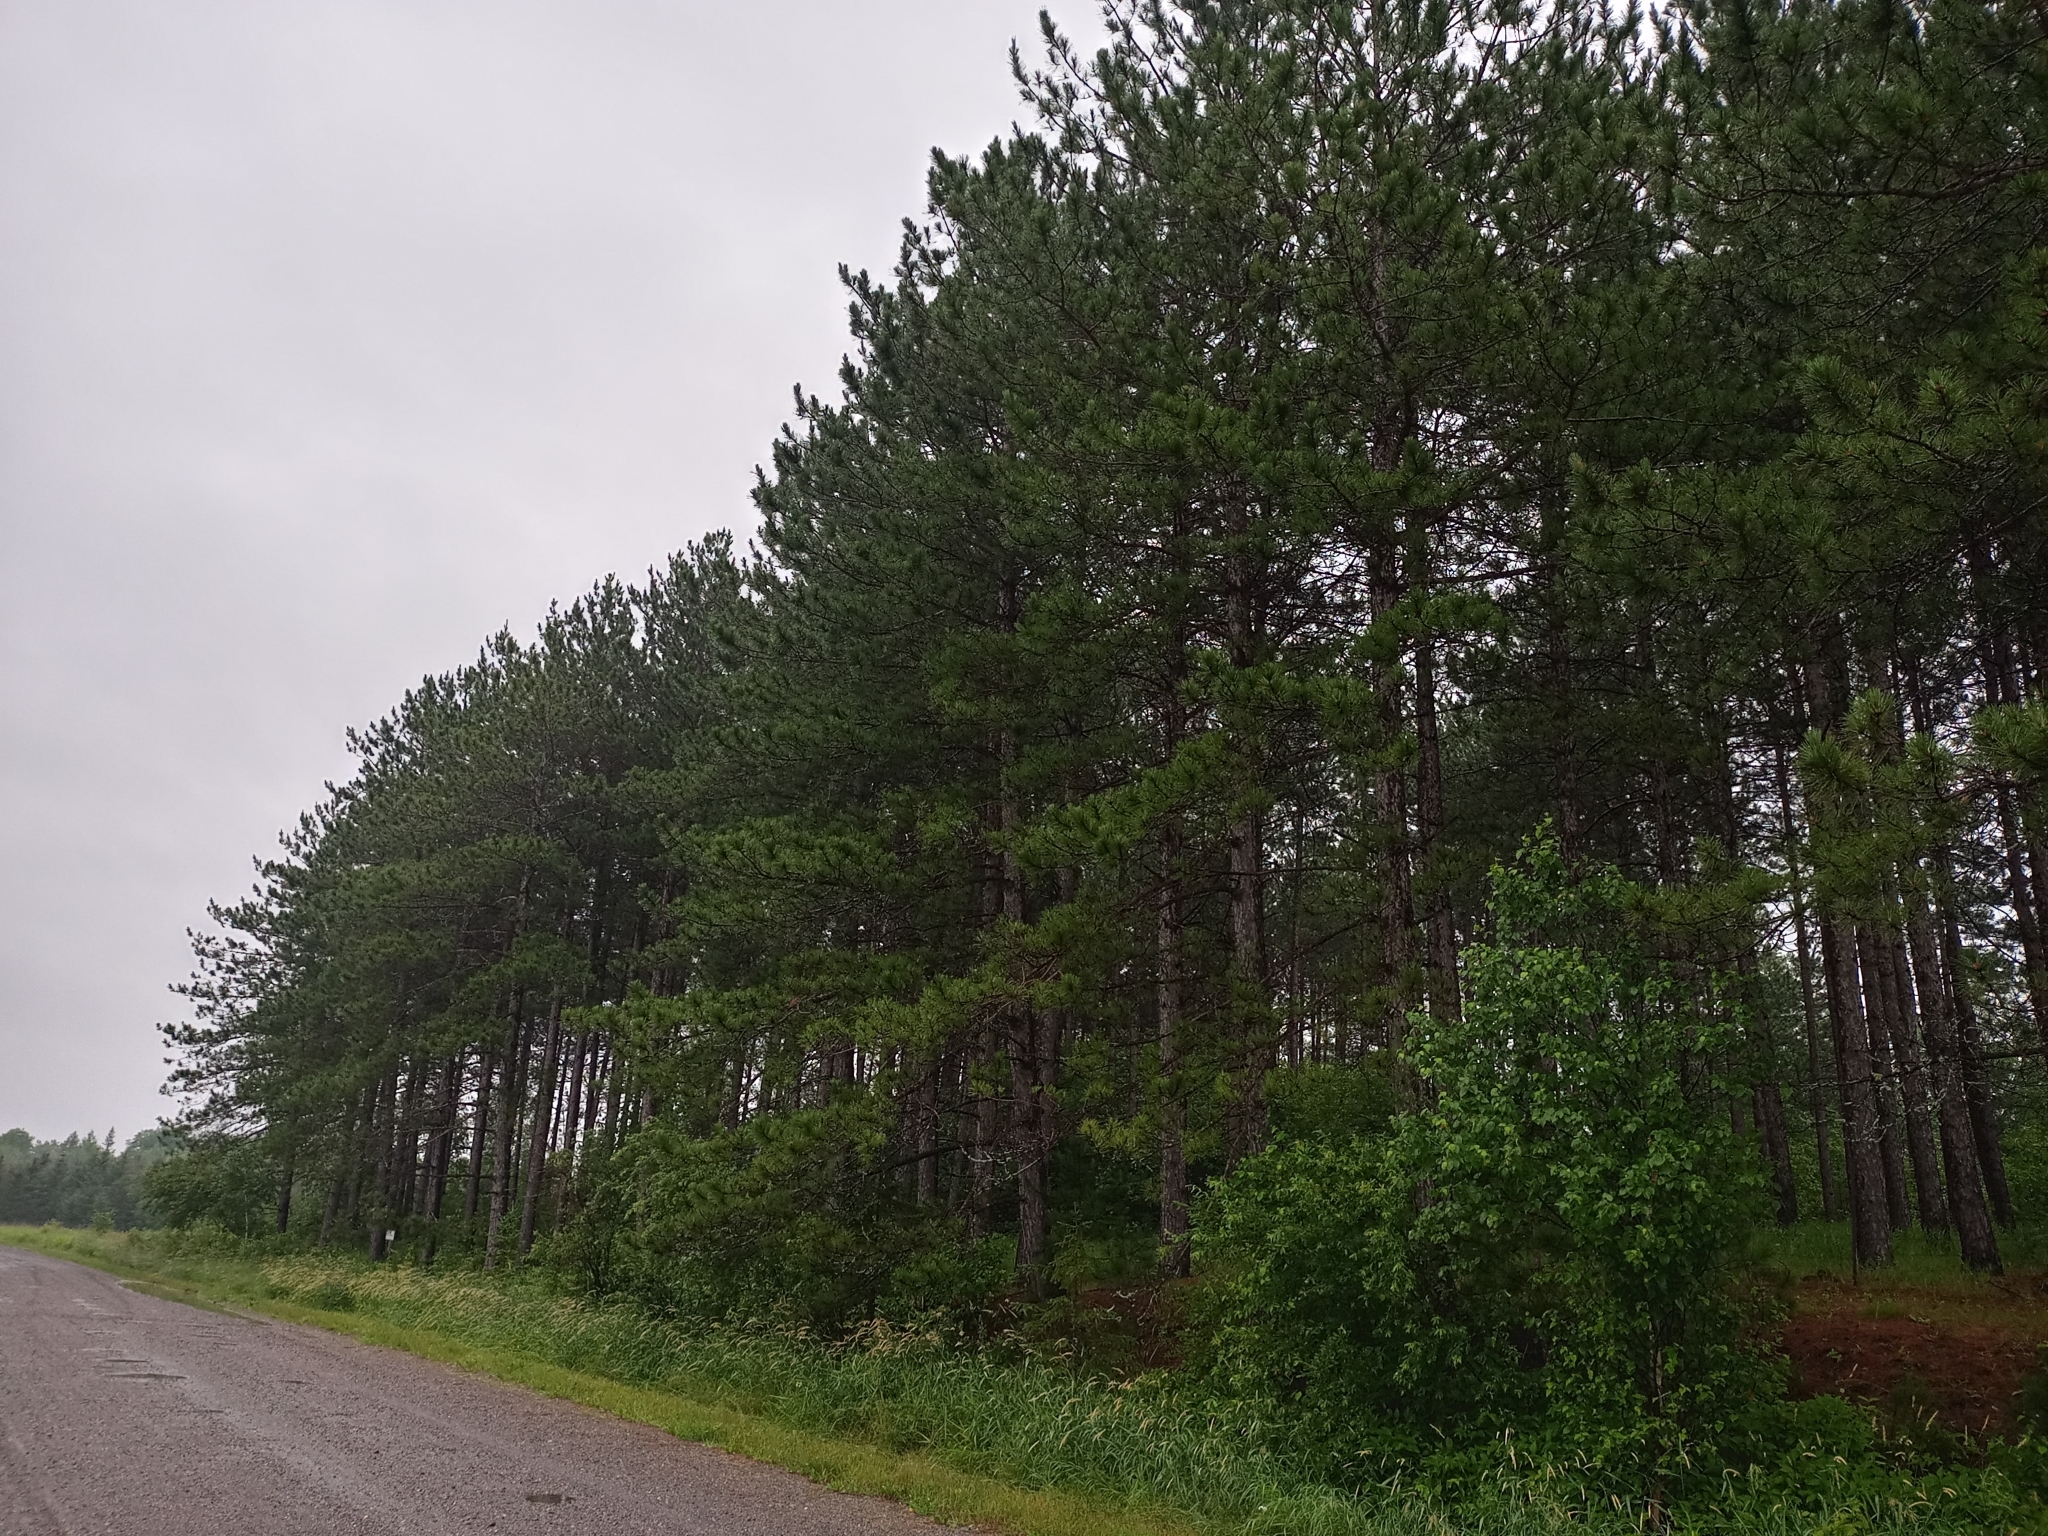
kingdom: Plantae
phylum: Tracheophyta
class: Pinopsida
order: Pinales
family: Pinaceae
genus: Pinus
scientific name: Pinus resinosa
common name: Norway pine
